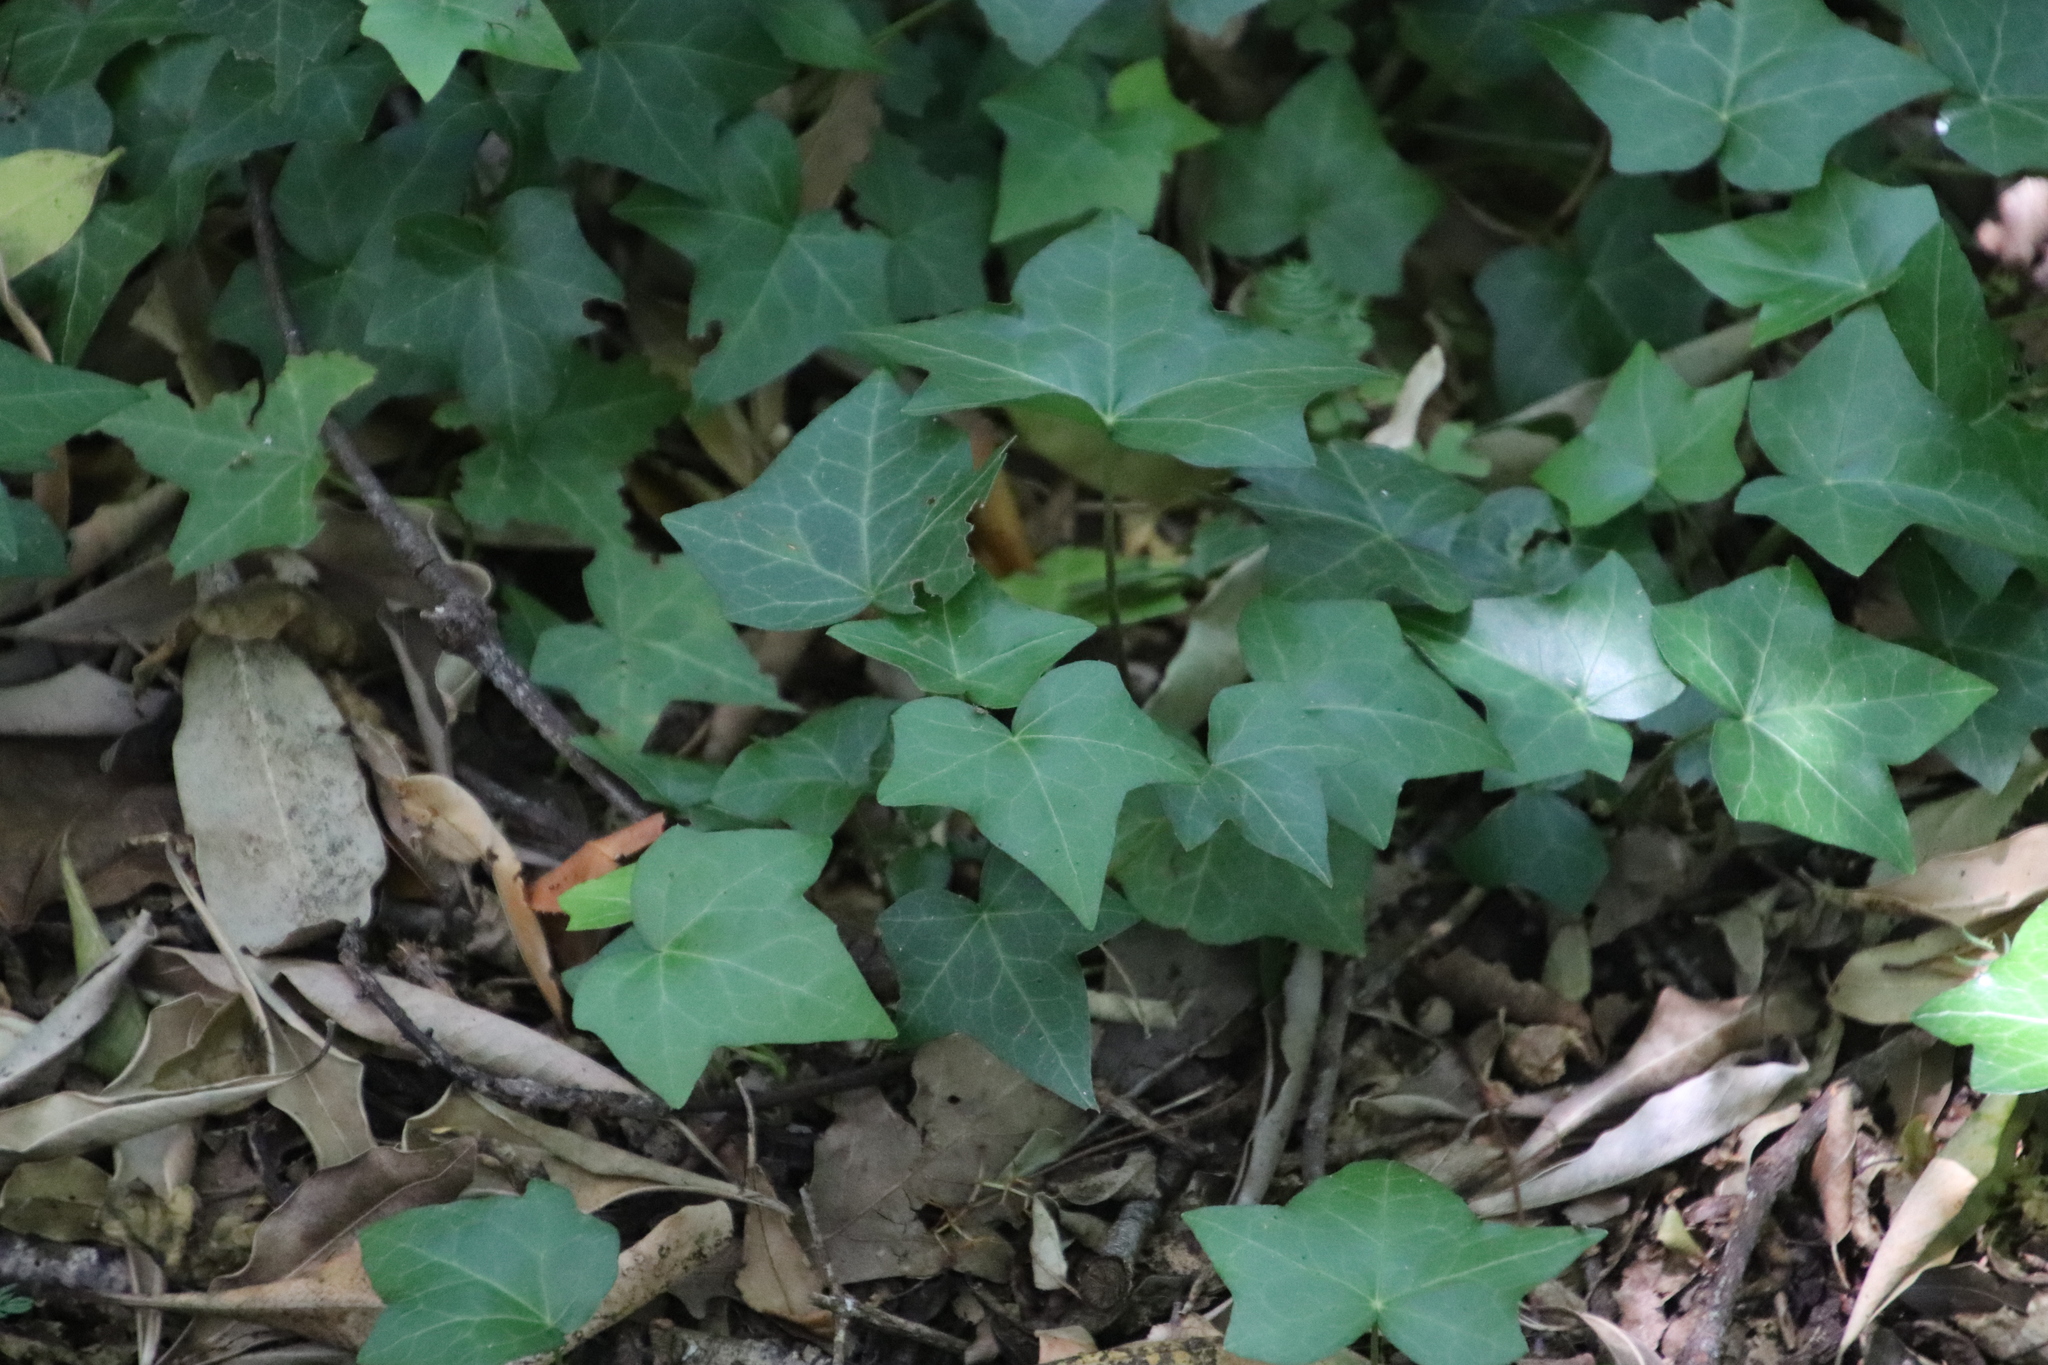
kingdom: Plantae
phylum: Tracheophyta
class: Magnoliopsida
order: Apiales
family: Araliaceae
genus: Hedera
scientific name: Hedera helix
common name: Ivy
